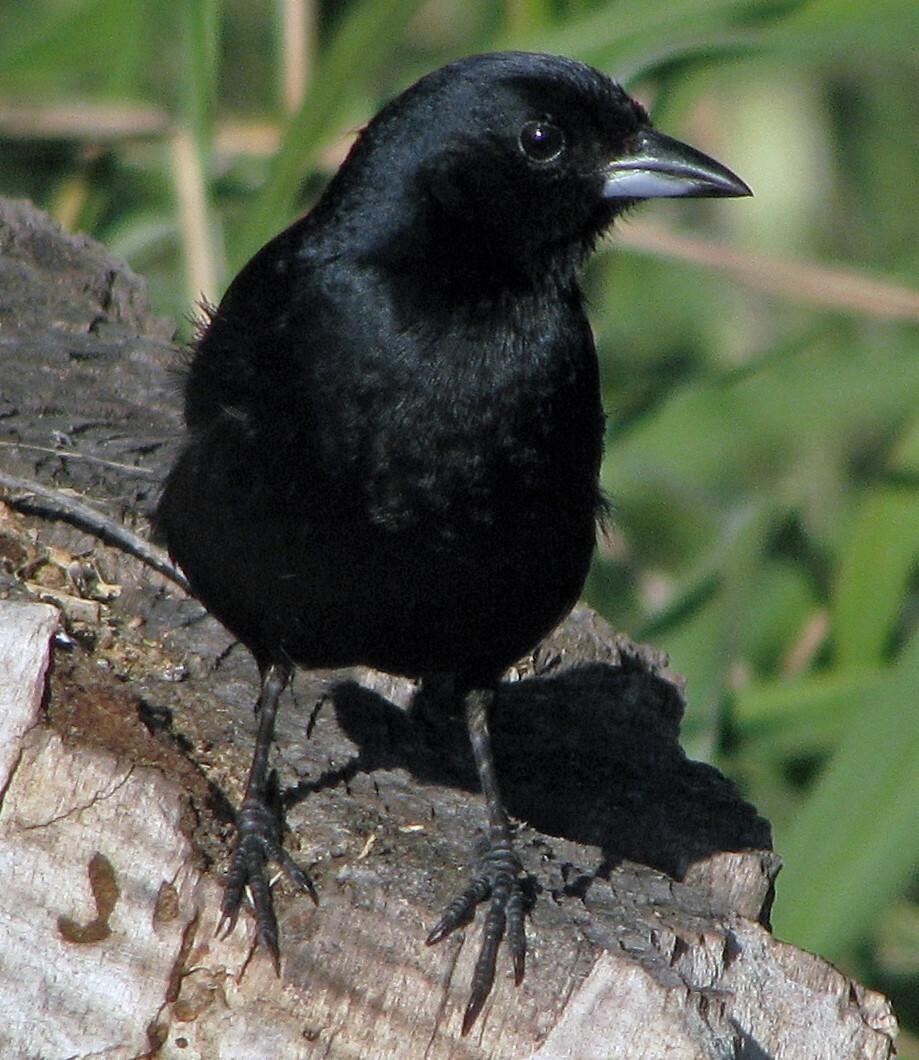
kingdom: Animalia
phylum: Chordata
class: Aves
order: Passeriformes
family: Thraupidae
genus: Tachyphonus
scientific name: Tachyphonus rufus
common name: White-lined tanager
